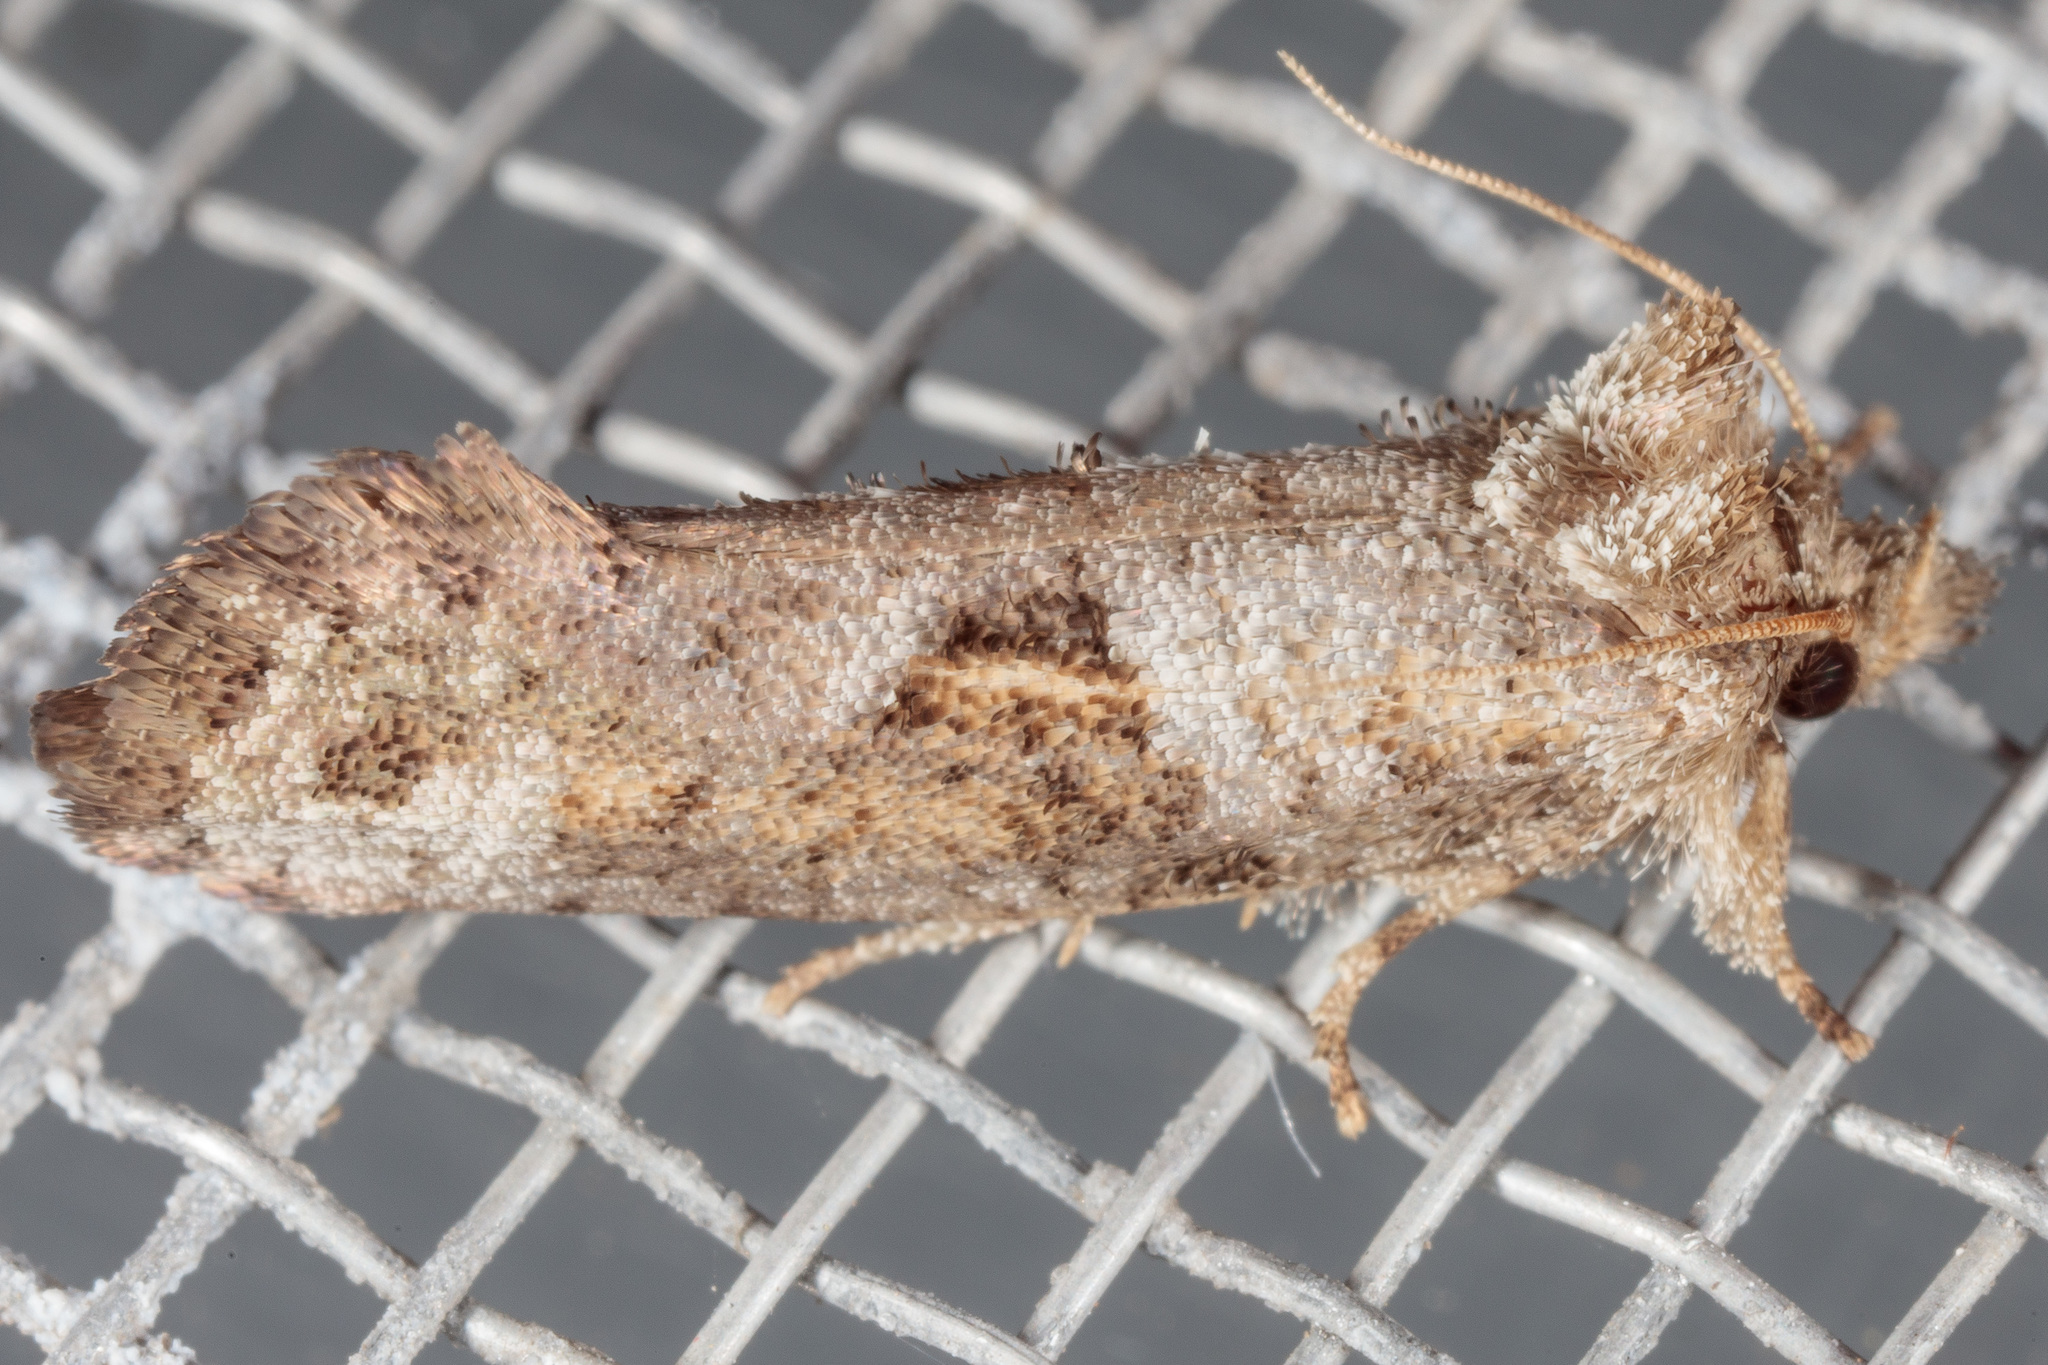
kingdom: Animalia
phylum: Arthropoda
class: Insecta
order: Lepidoptera
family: Tineidae
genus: Acrolophus
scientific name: Acrolophus piger
